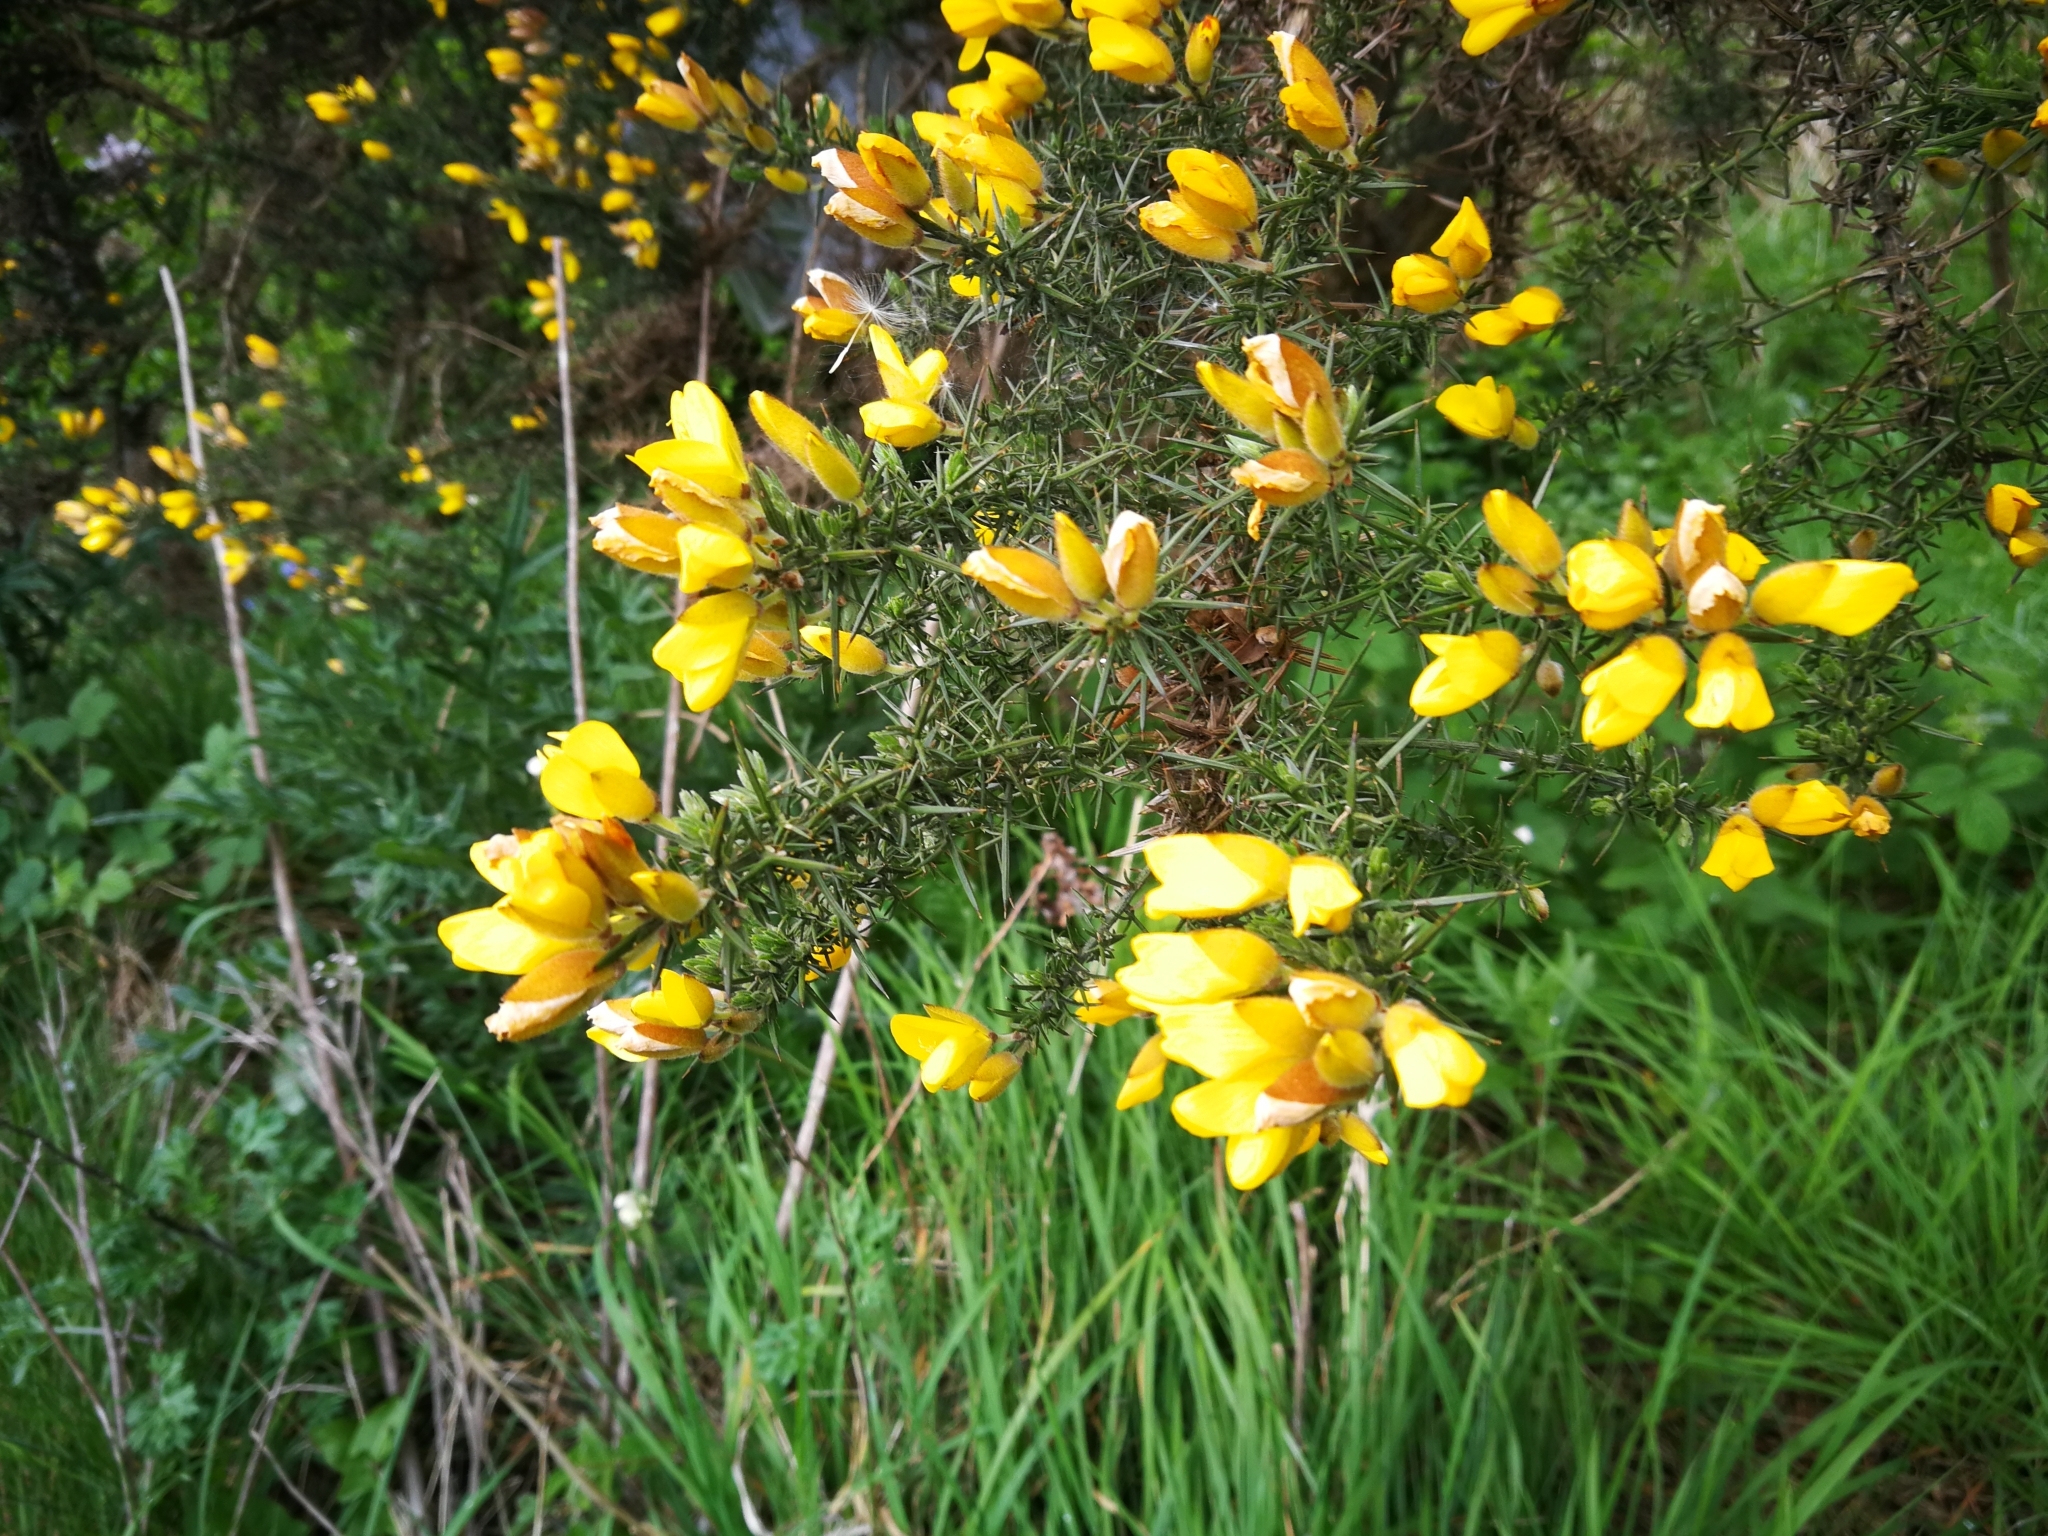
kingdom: Plantae
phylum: Tracheophyta
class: Magnoliopsida
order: Fabales
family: Fabaceae
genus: Ulex
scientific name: Ulex europaeus
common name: Common gorse
